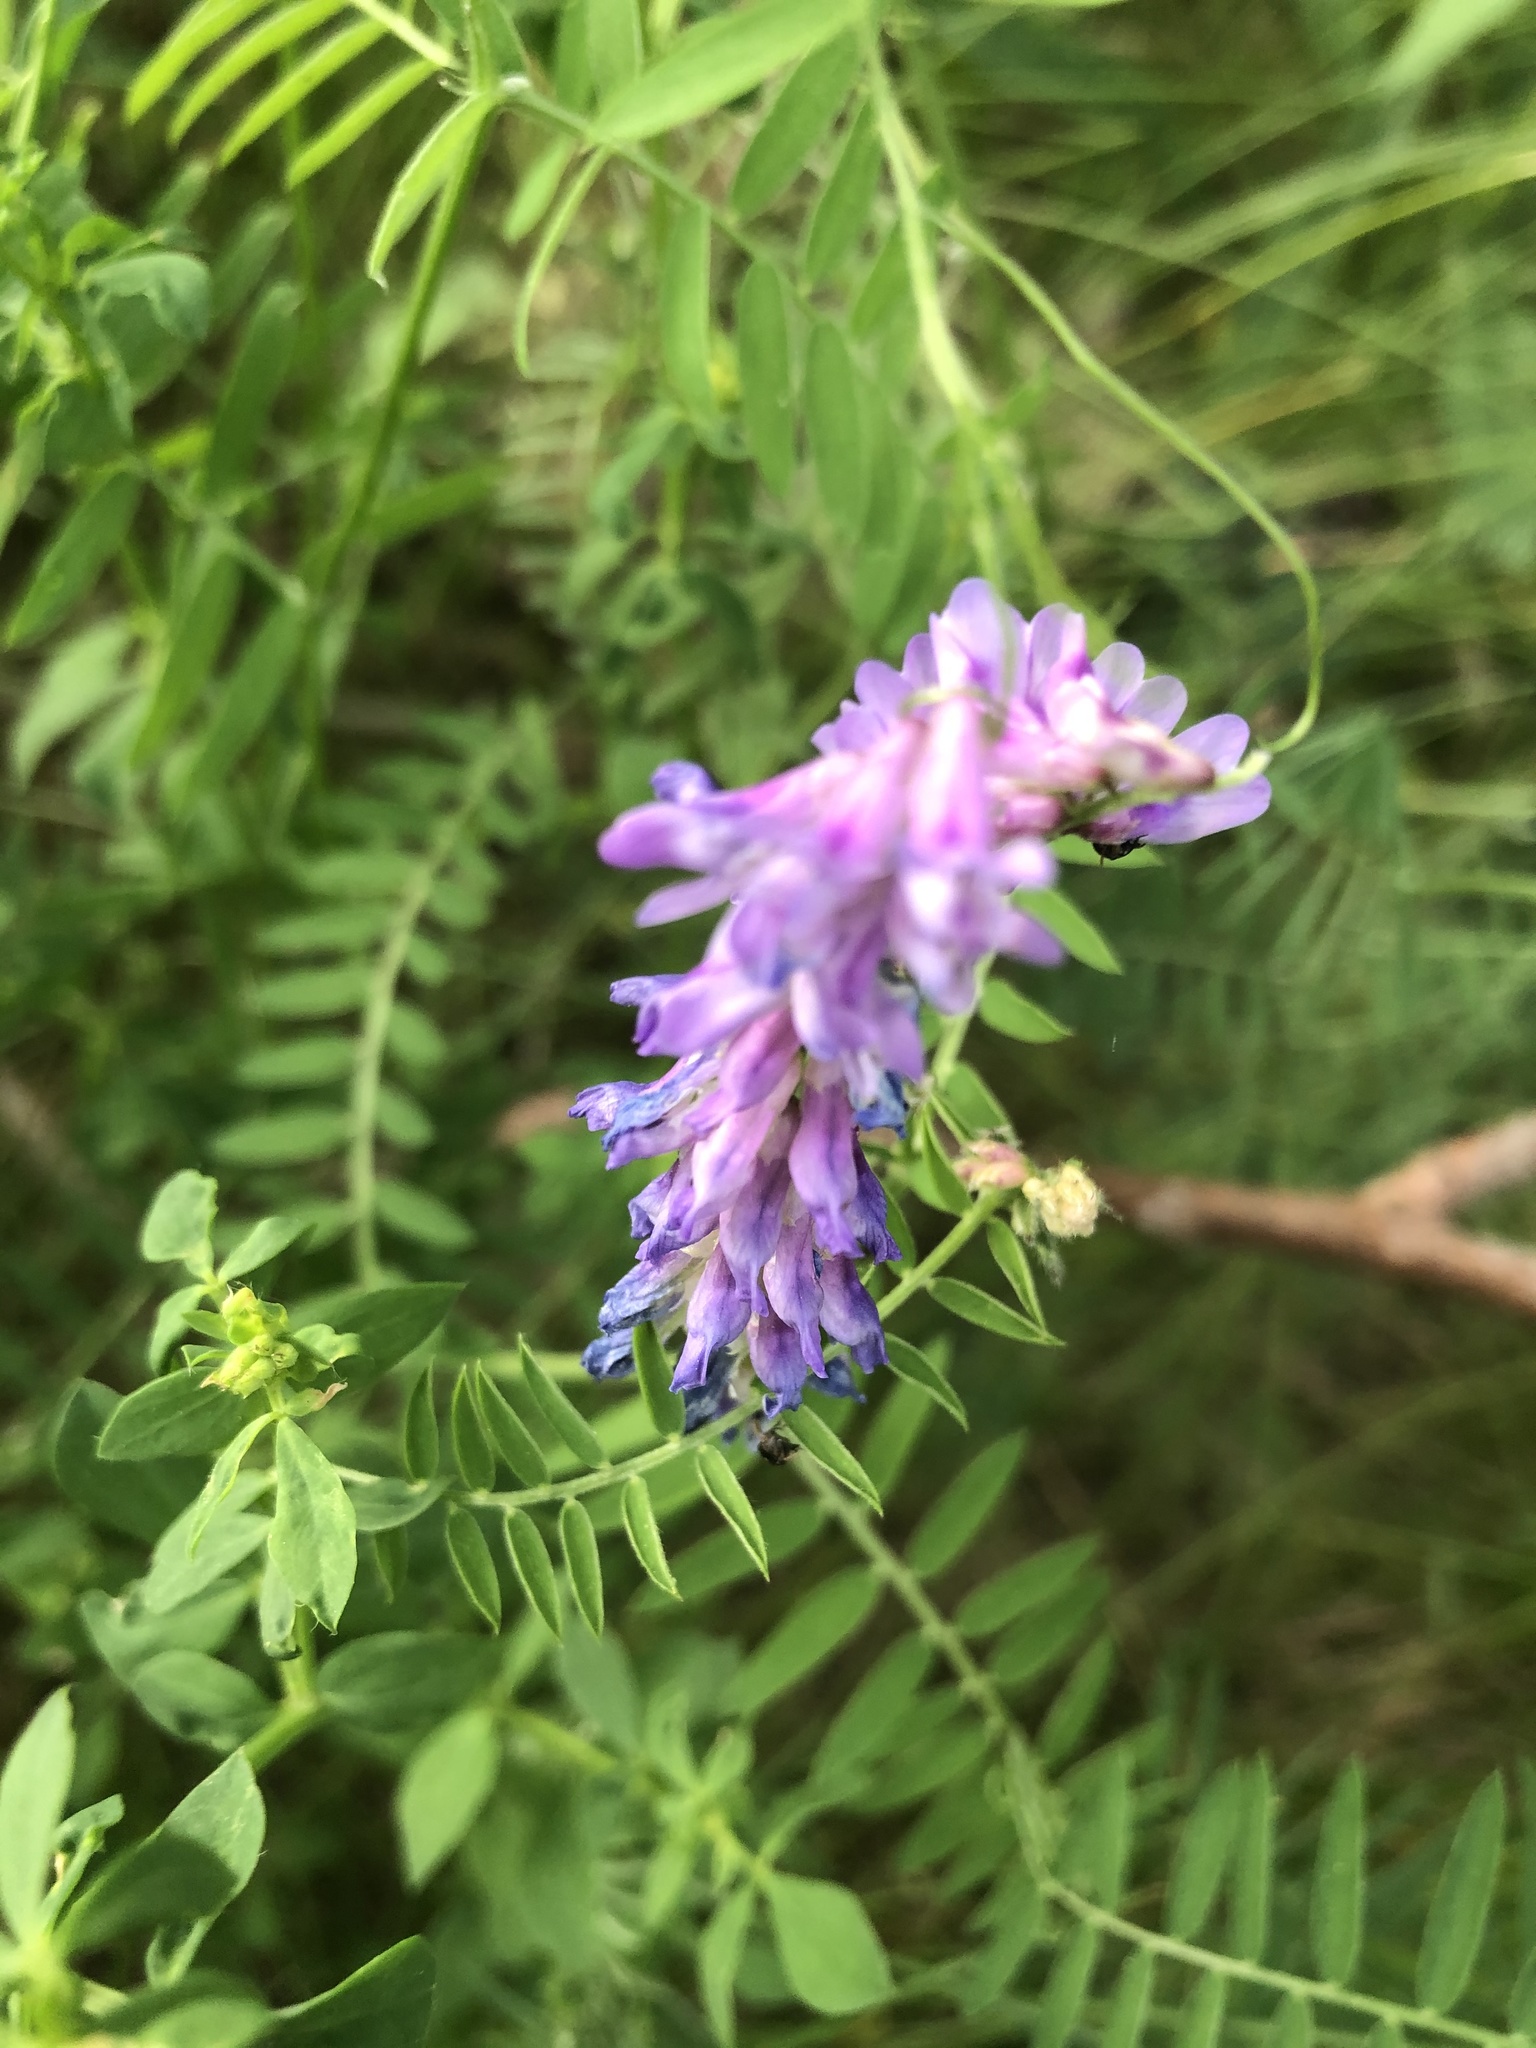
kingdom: Plantae
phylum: Tracheophyta
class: Magnoliopsida
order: Fabales
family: Fabaceae
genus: Vicia
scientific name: Vicia cracca
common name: Bird vetch
